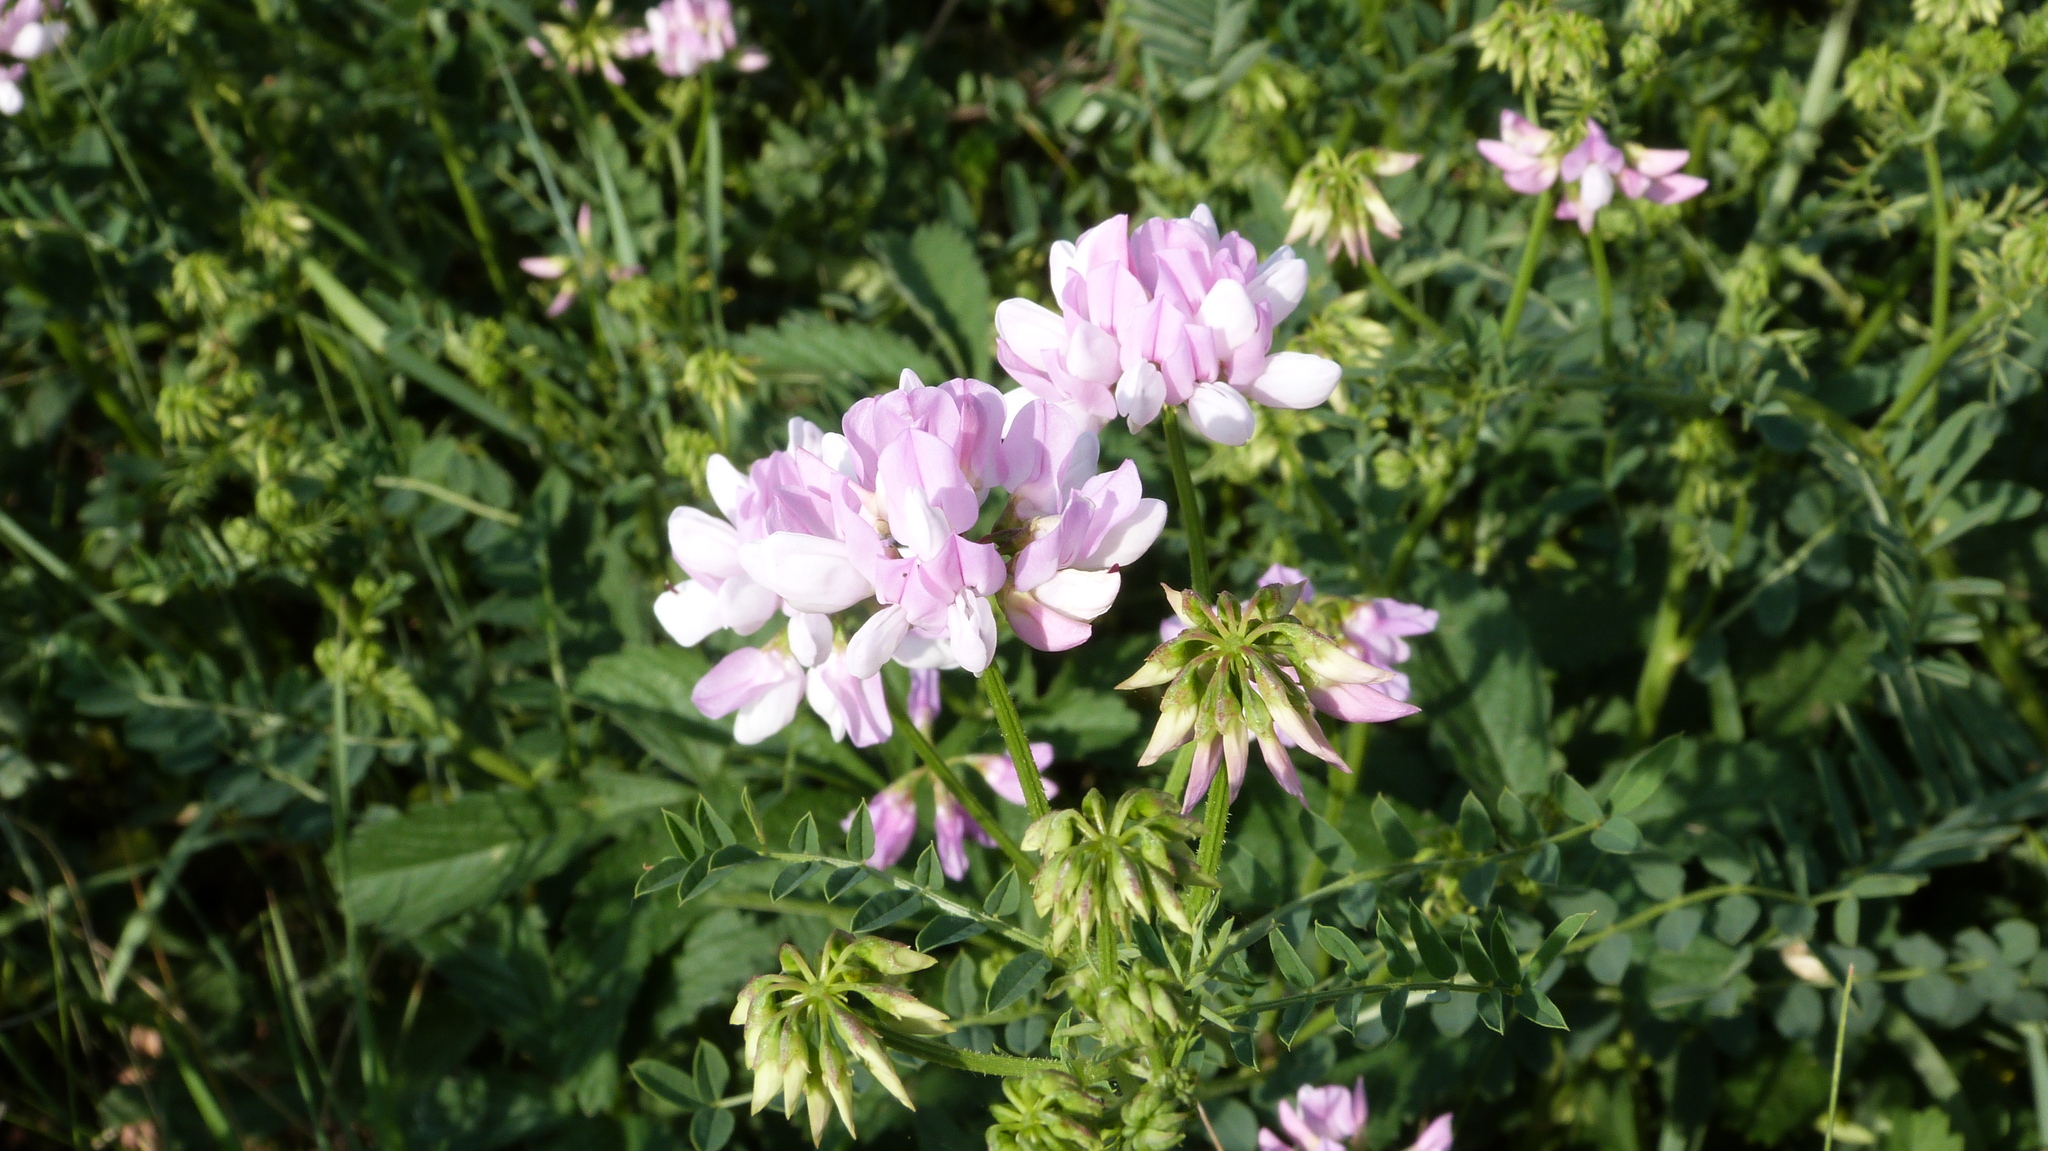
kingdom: Plantae
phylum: Tracheophyta
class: Magnoliopsida
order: Fabales
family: Fabaceae
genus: Coronilla
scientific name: Coronilla varia
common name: Crownvetch
